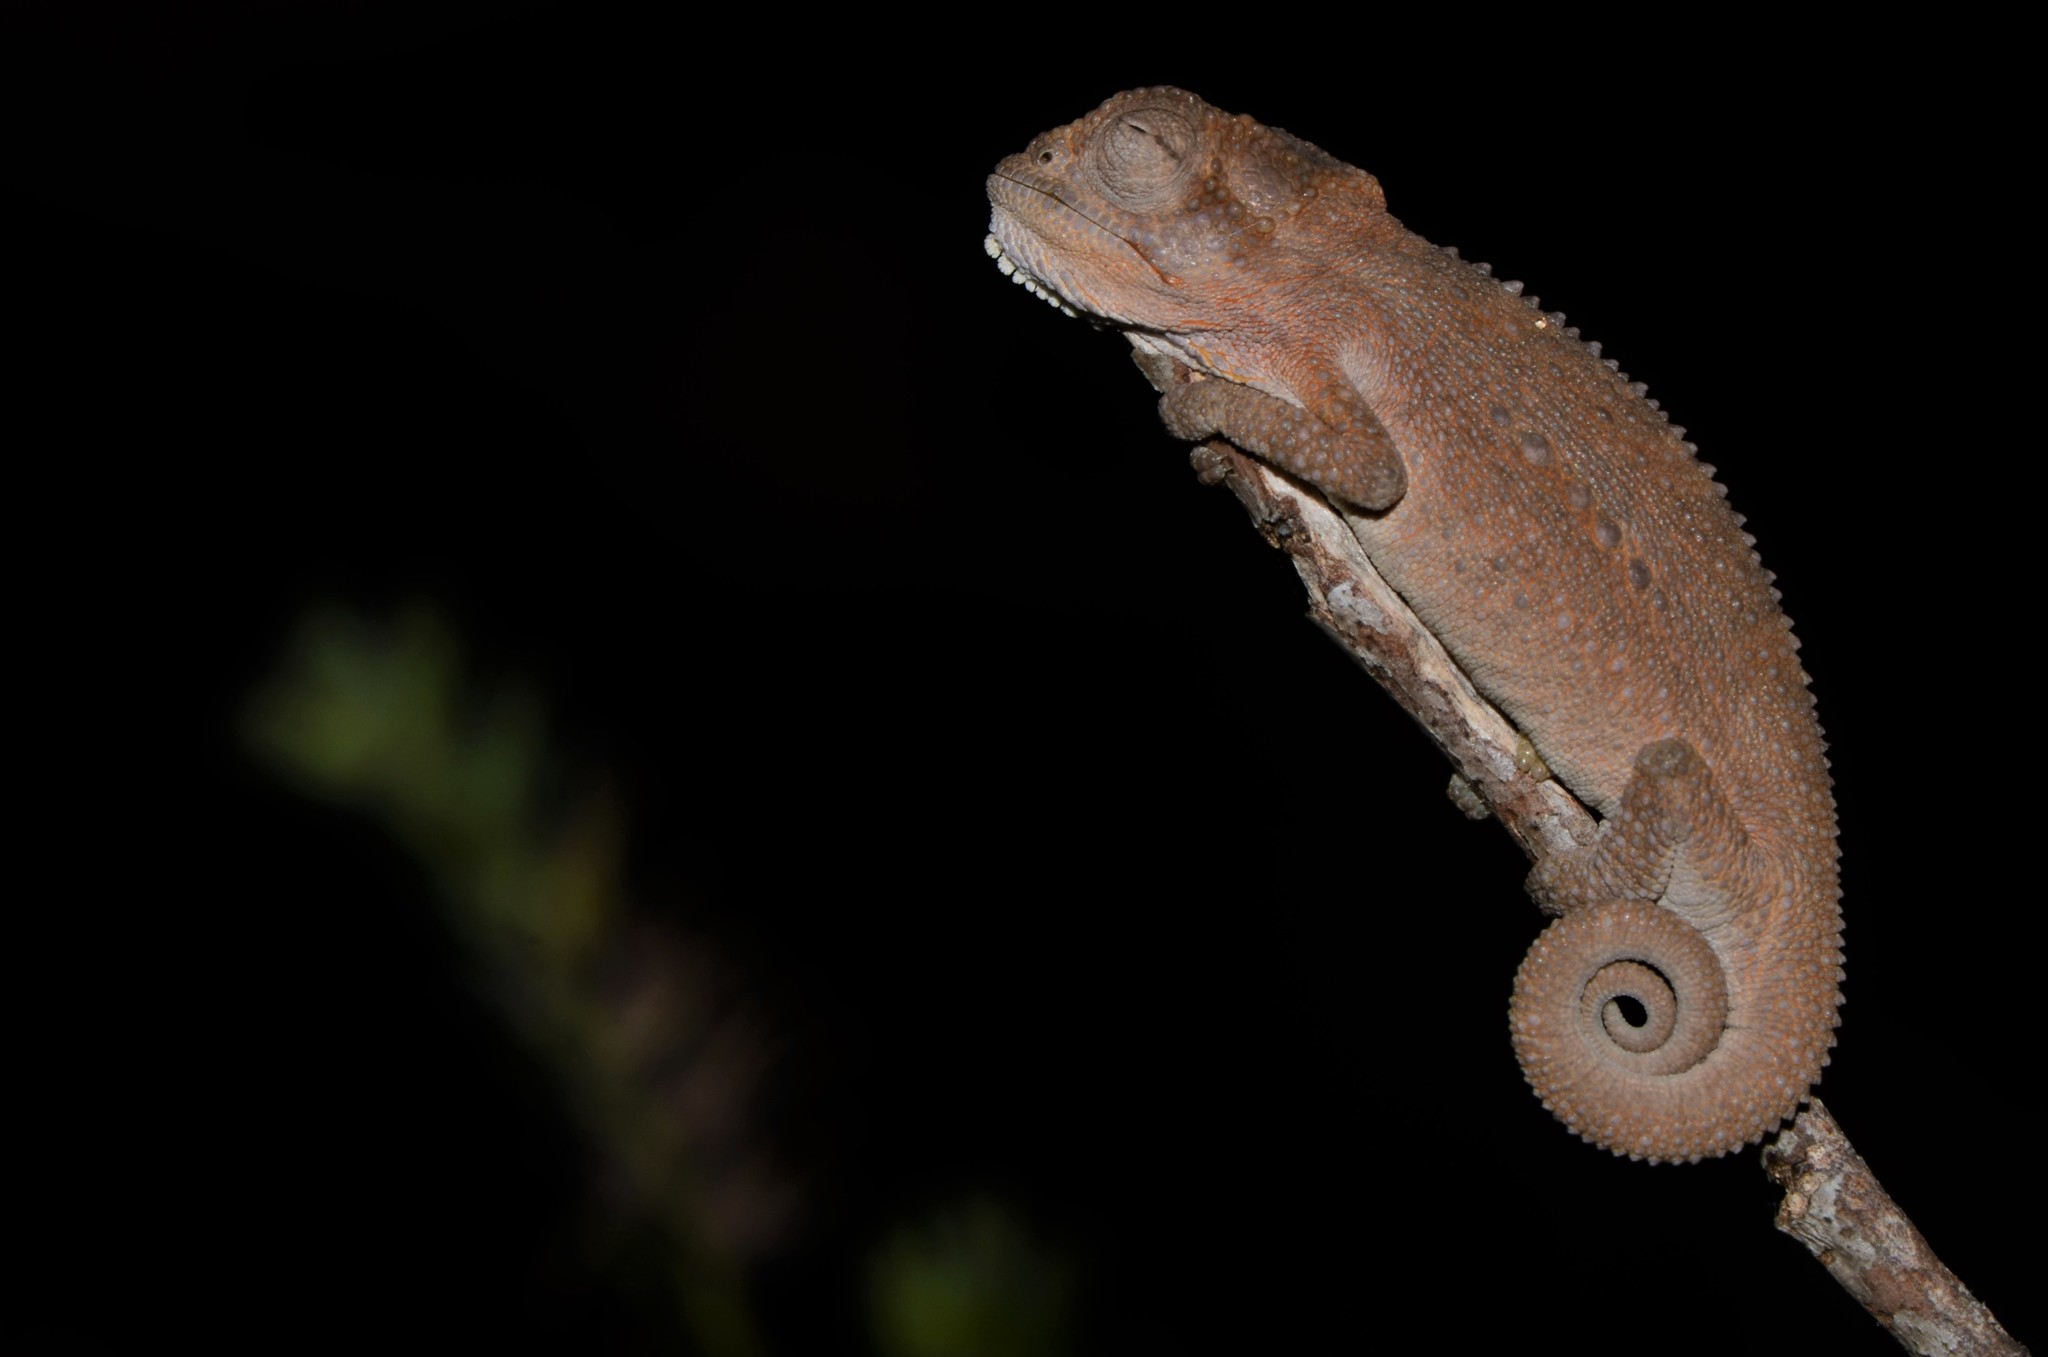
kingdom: Animalia
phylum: Chordata
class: Squamata
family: Chamaeleonidae
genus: Bradypodion
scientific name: Bradypodion pumilum
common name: Cape dwarf chameleon
